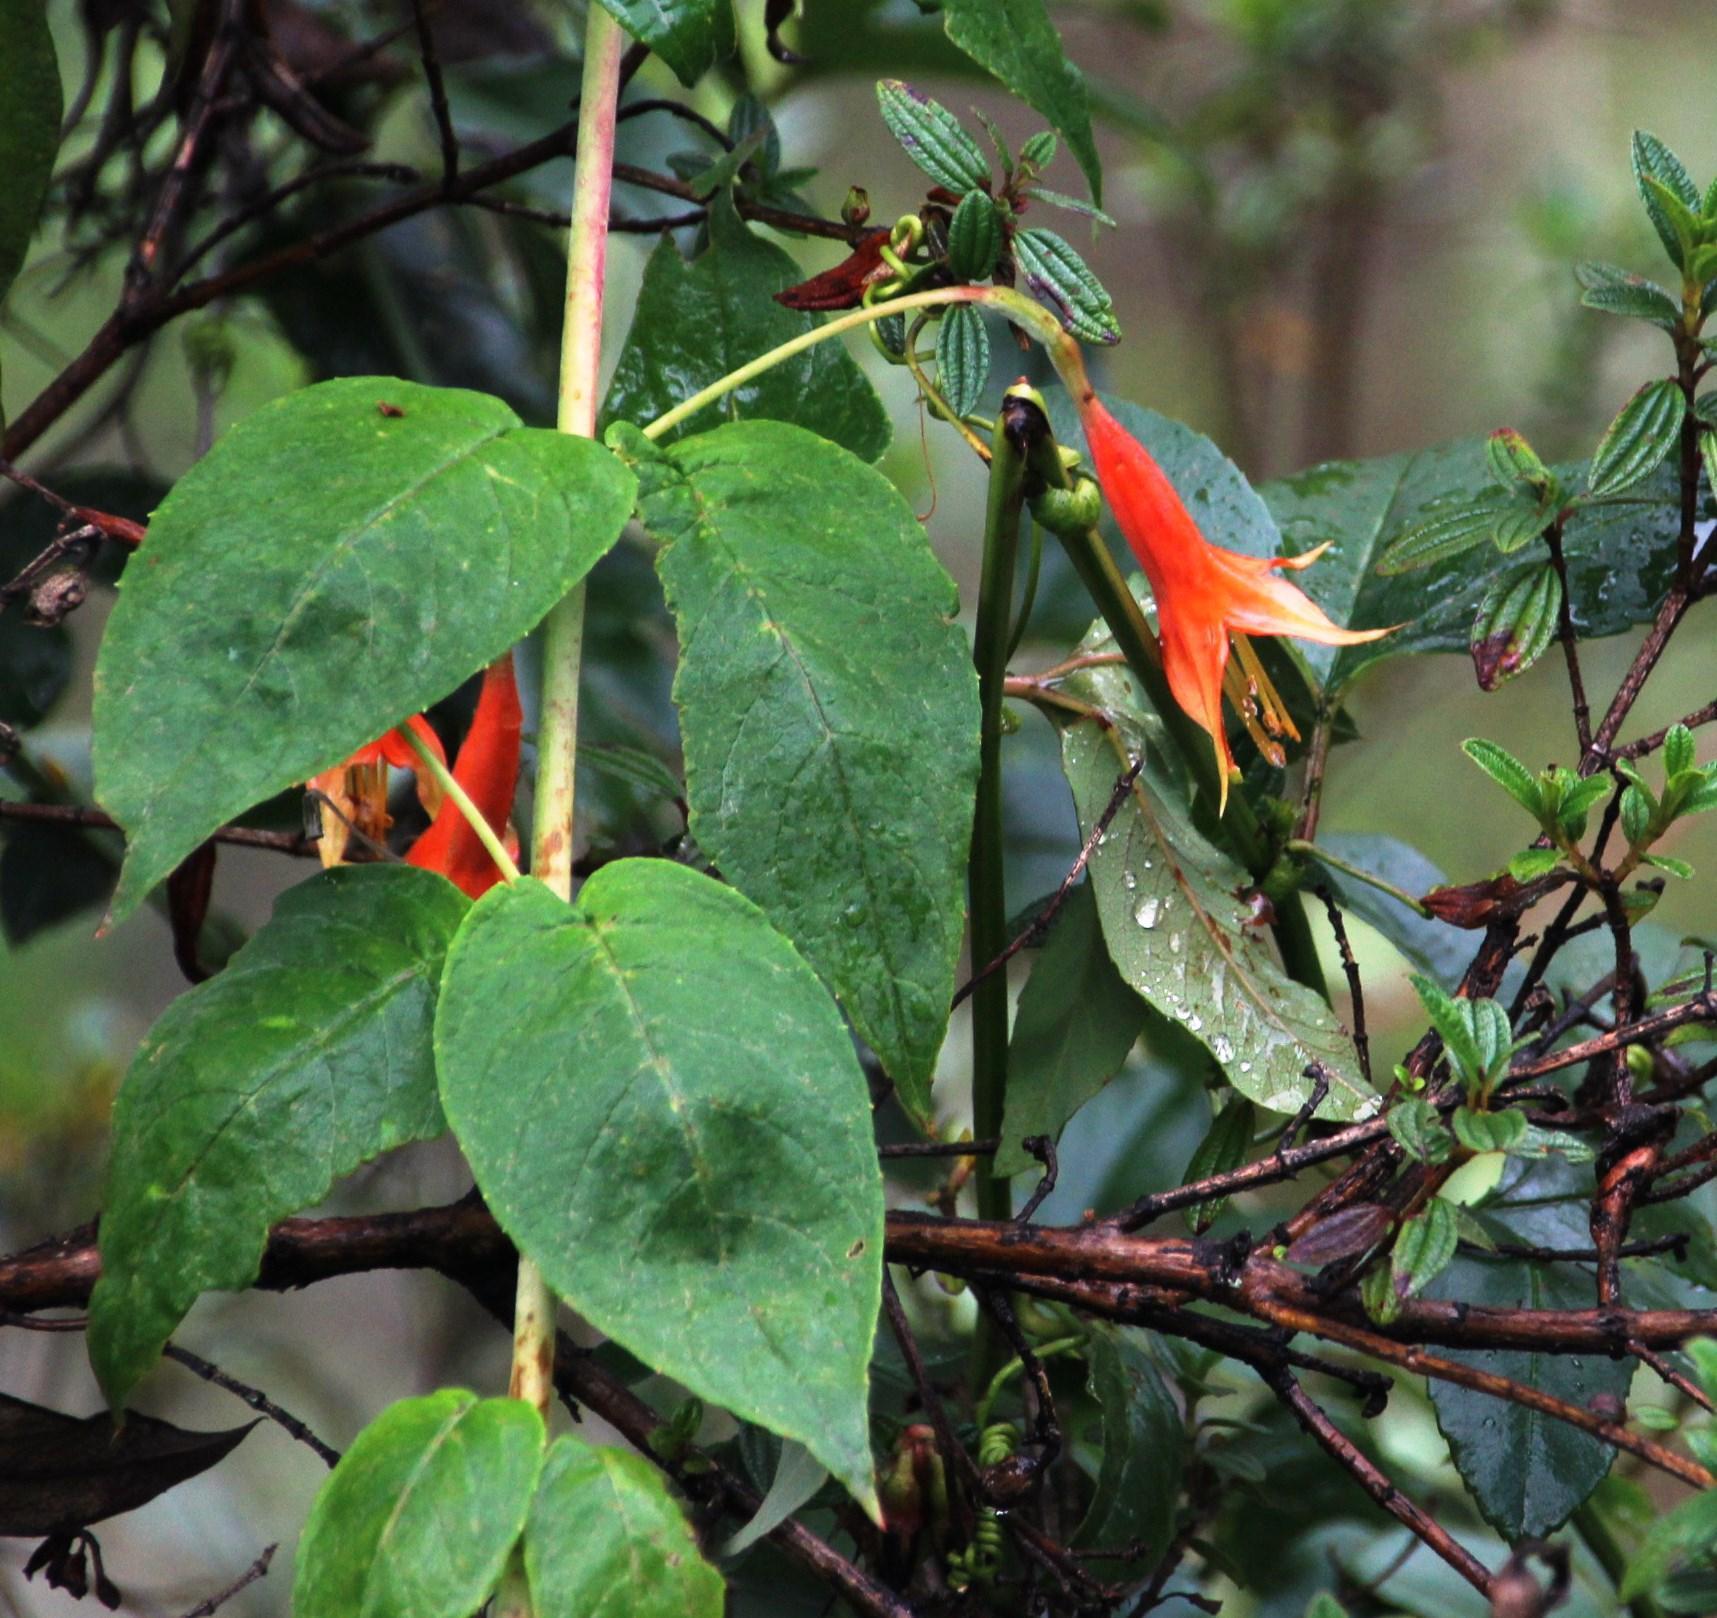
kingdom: Plantae
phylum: Tracheophyta
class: Magnoliopsida
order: Myrtales
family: Onagraceae
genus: Fuchsia
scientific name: Fuchsia tunariensis
